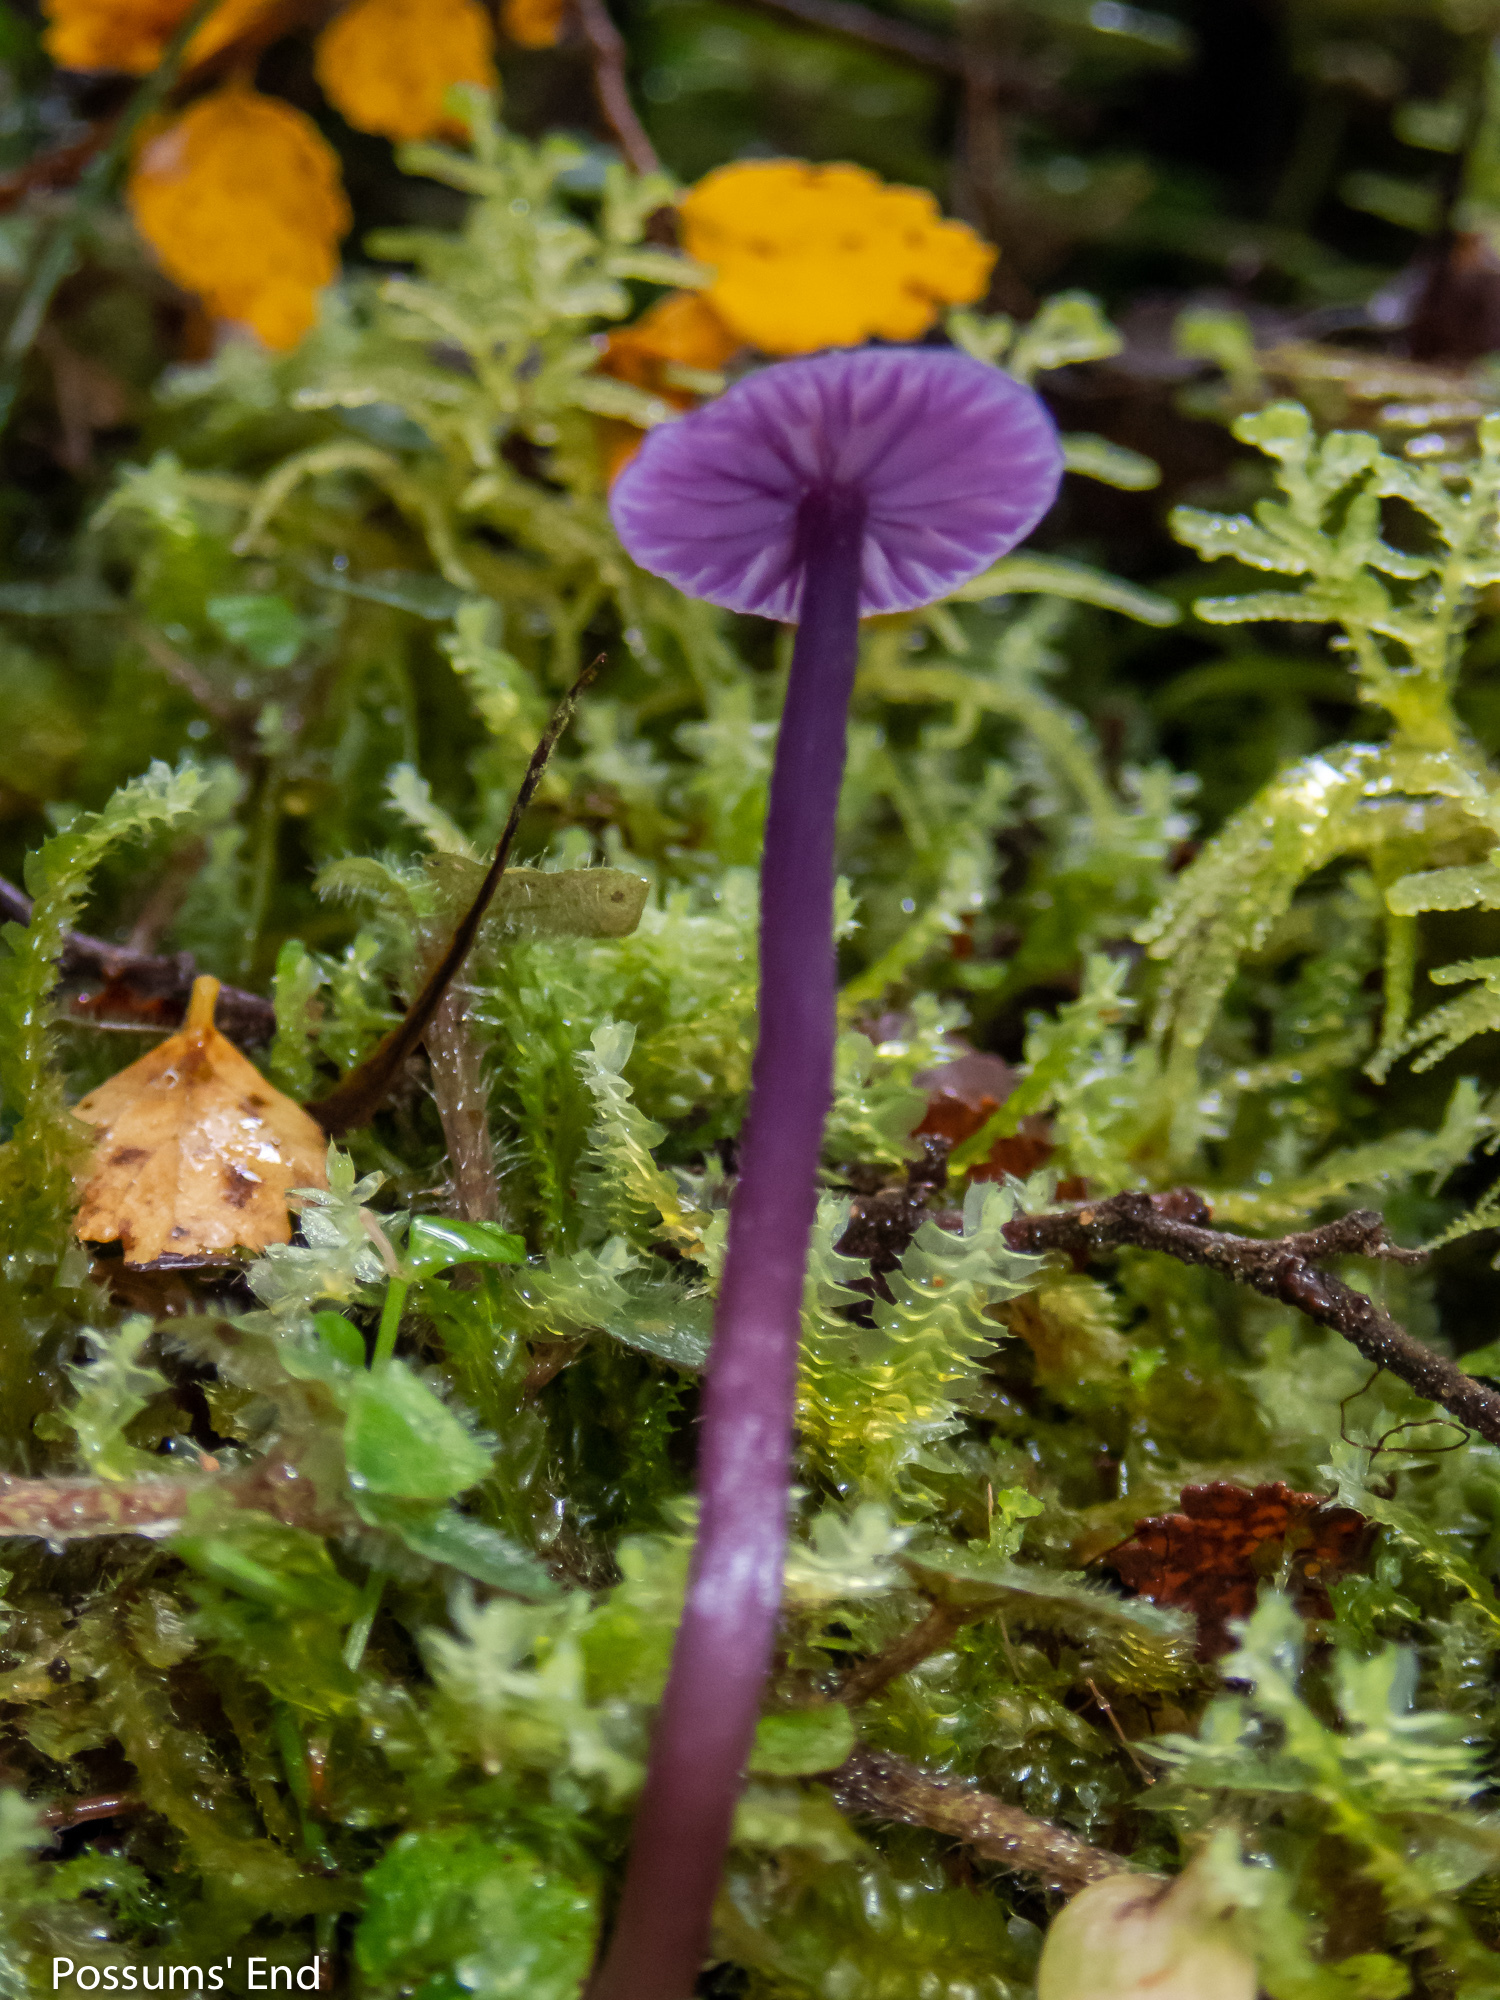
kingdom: Fungi
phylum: Basidiomycota
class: Agaricomycetes
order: Agaricales
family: Hydnangiaceae
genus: Laccaria
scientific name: Laccaria masoniae
